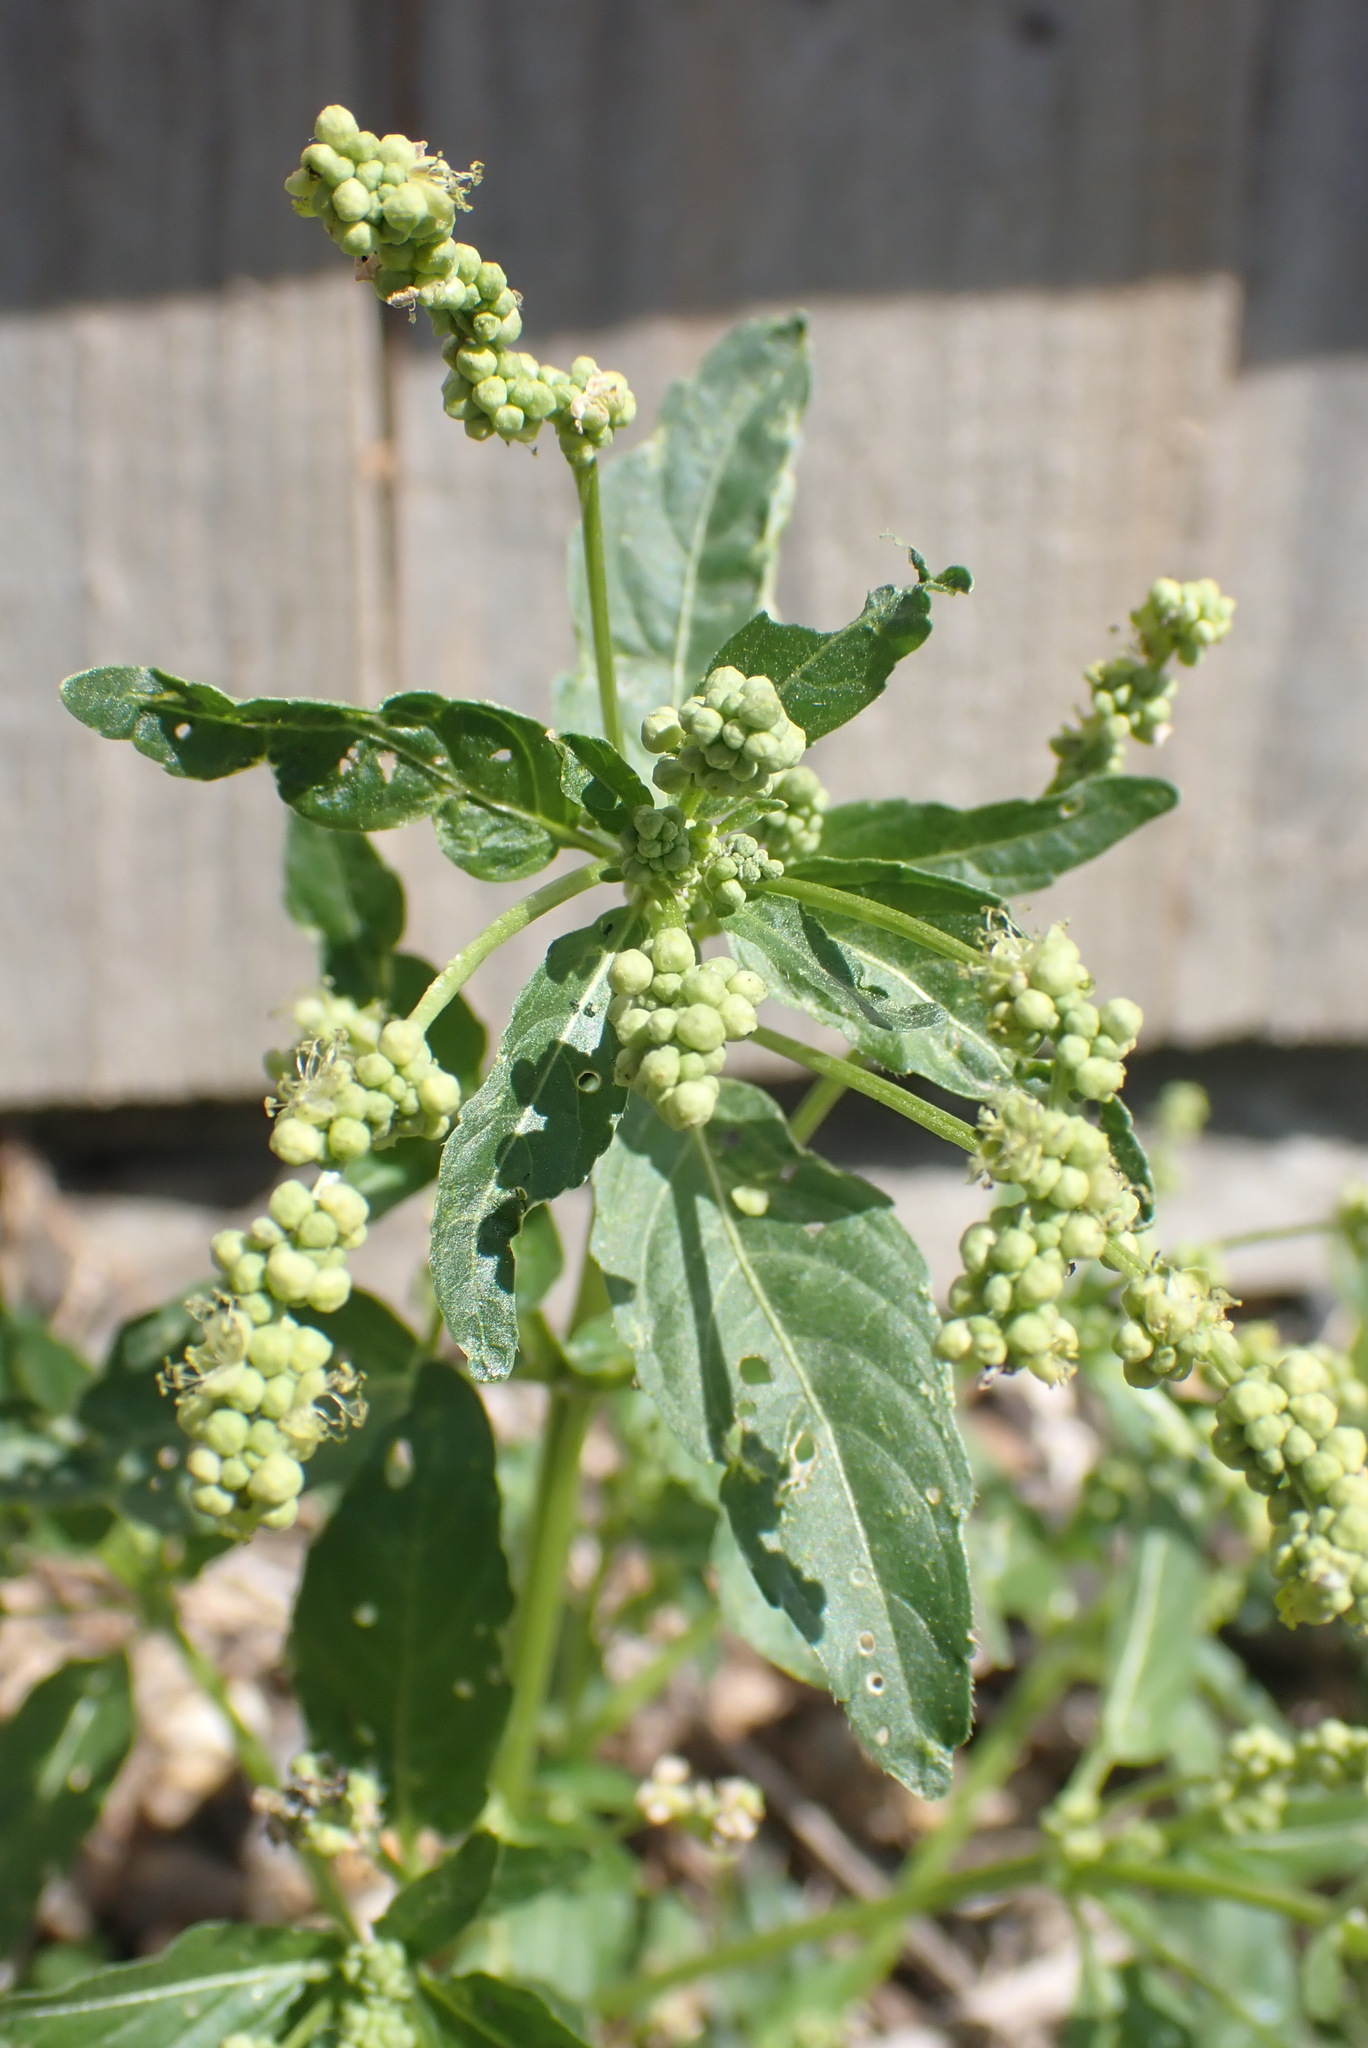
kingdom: Plantae
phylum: Tracheophyta
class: Magnoliopsida
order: Malpighiales
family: Euphorbiaceae
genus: Mercurialis
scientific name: Mercurialis annua
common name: Annual mercury
